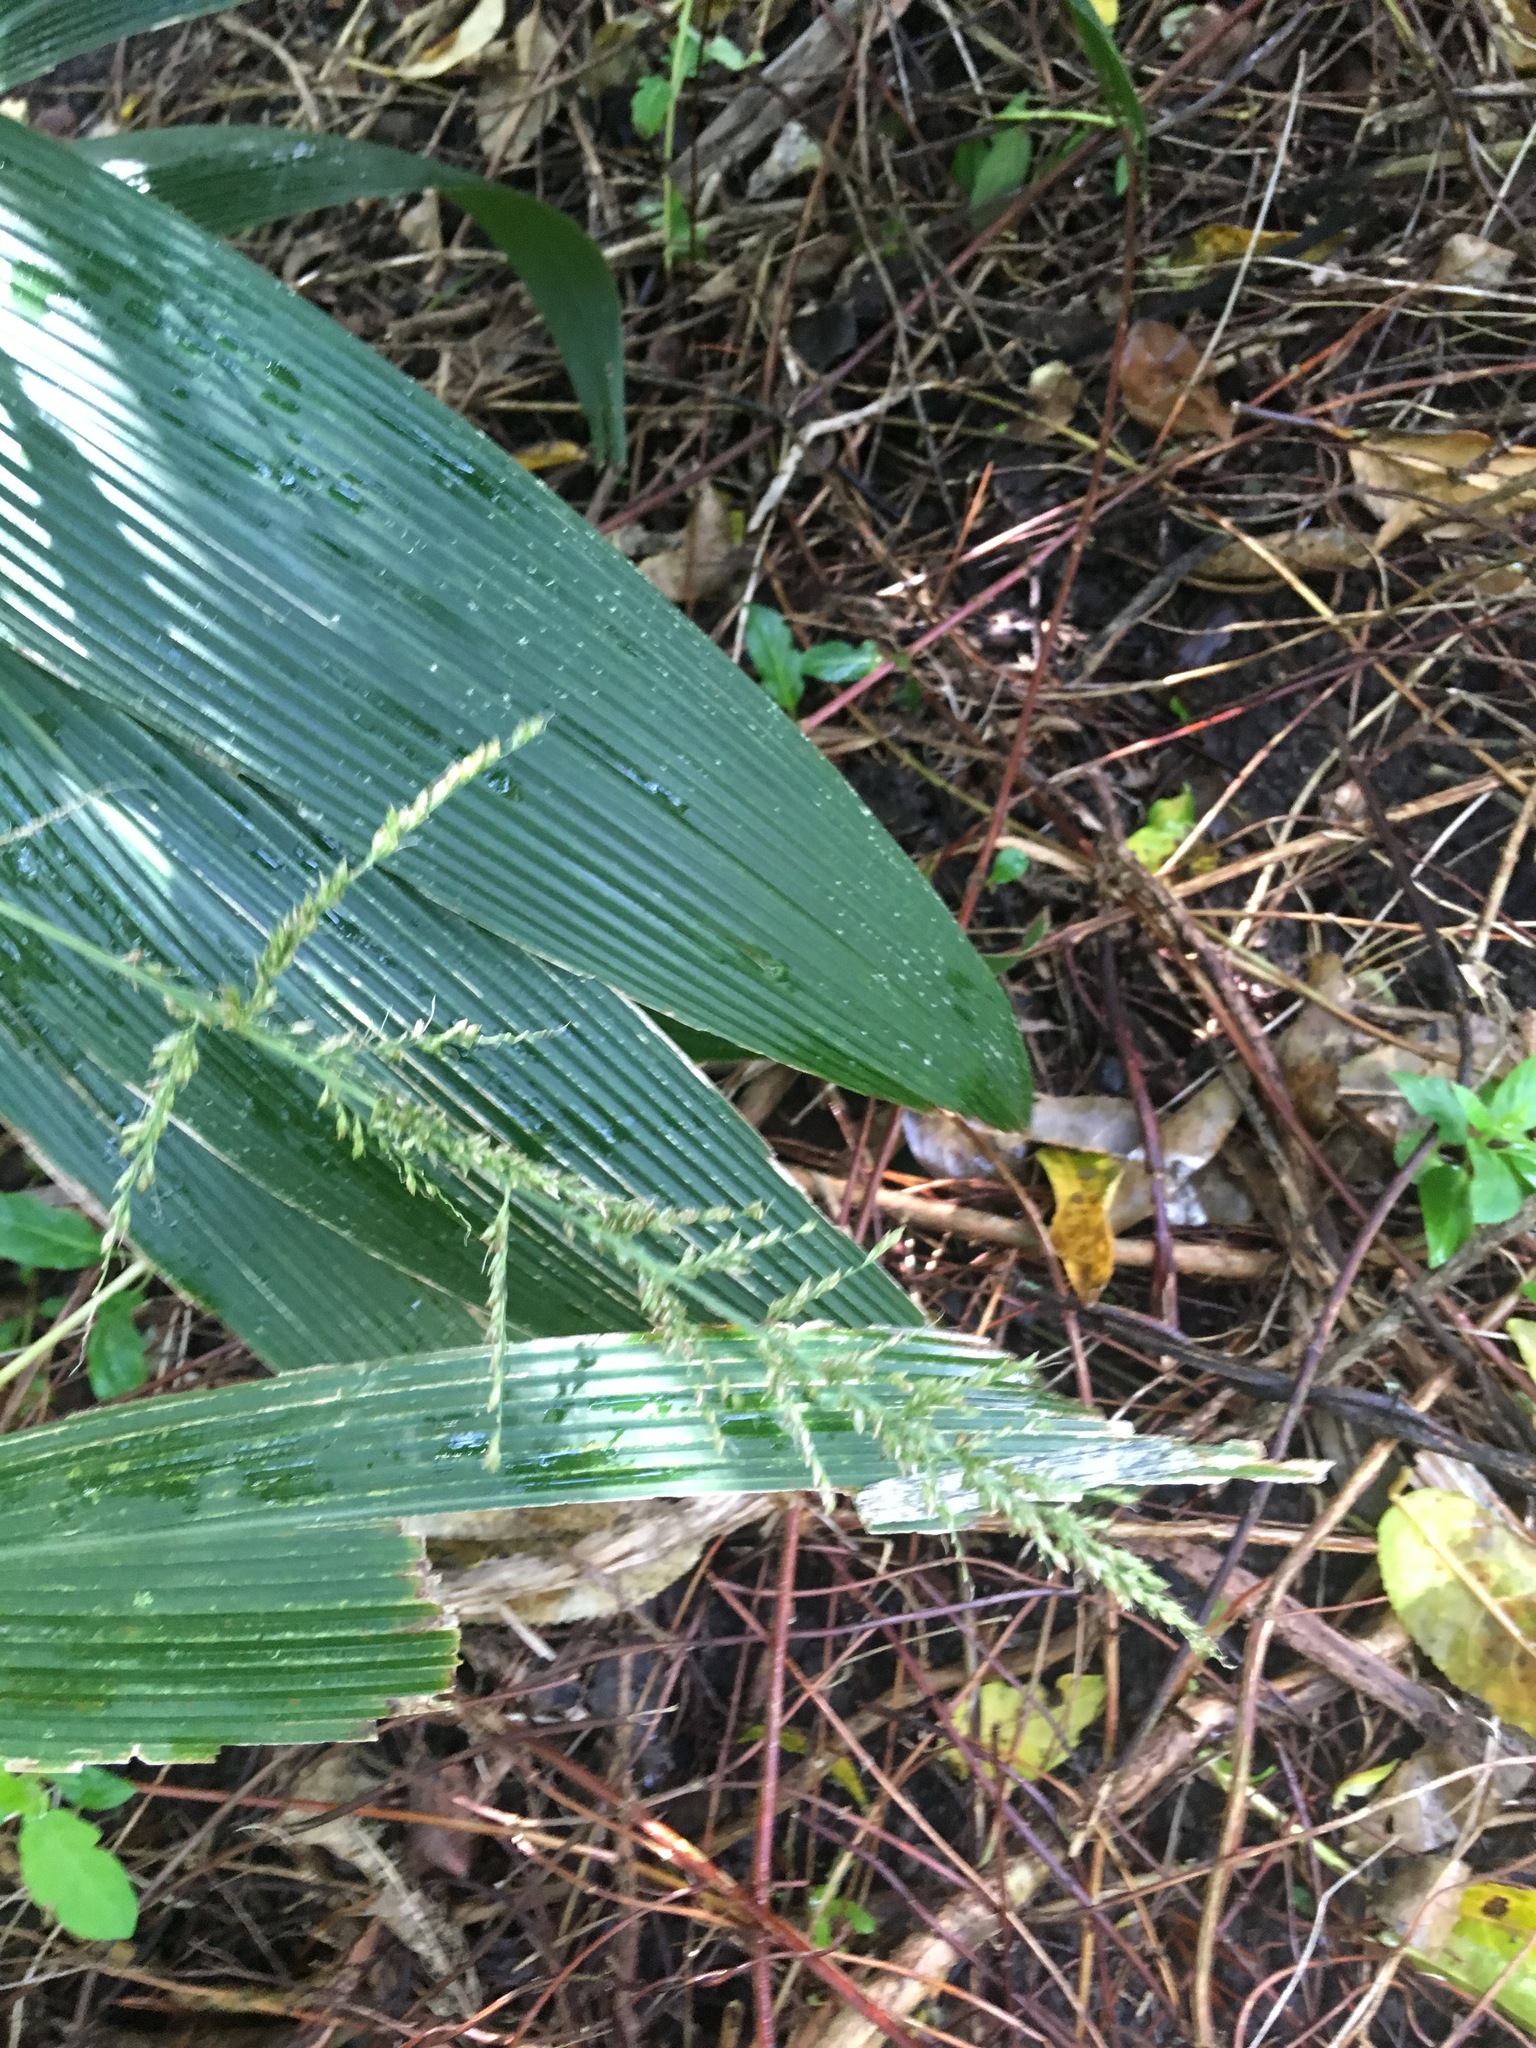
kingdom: Plantae
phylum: Tracheophyta
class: Liliopsida
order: Poales
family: Poaceae
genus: Setaria
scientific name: Setaria palmifolia
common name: Broadleaved bristlegrass
